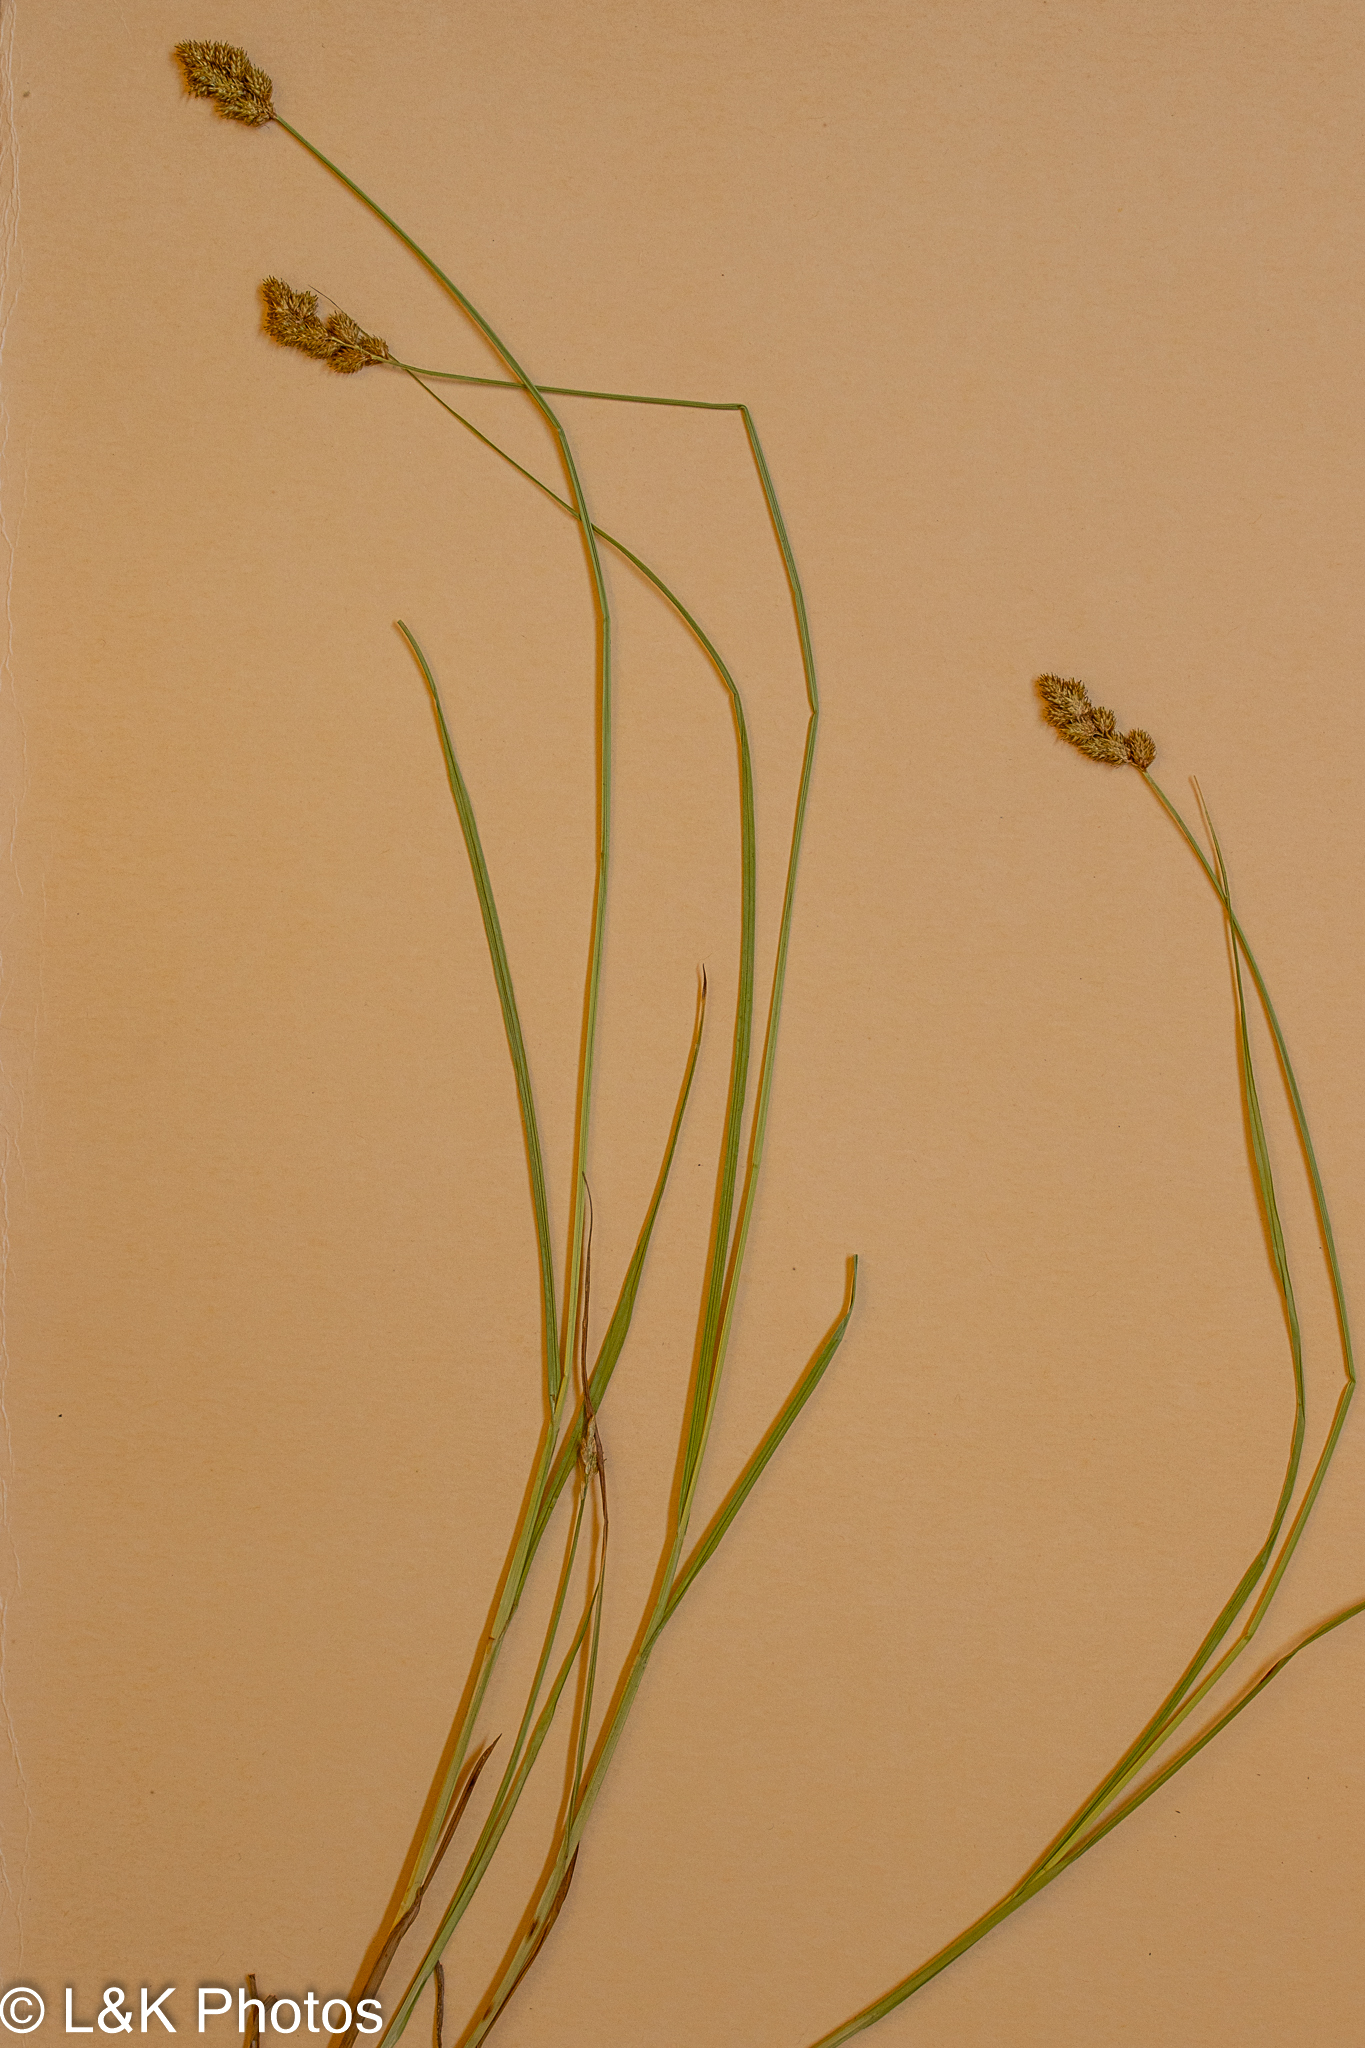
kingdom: Plantae
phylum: Tracheophyta
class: Liliopsida
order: Poales
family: Cyperaceae
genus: Carex
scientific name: Carex bebbii
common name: Bebb's sedge
